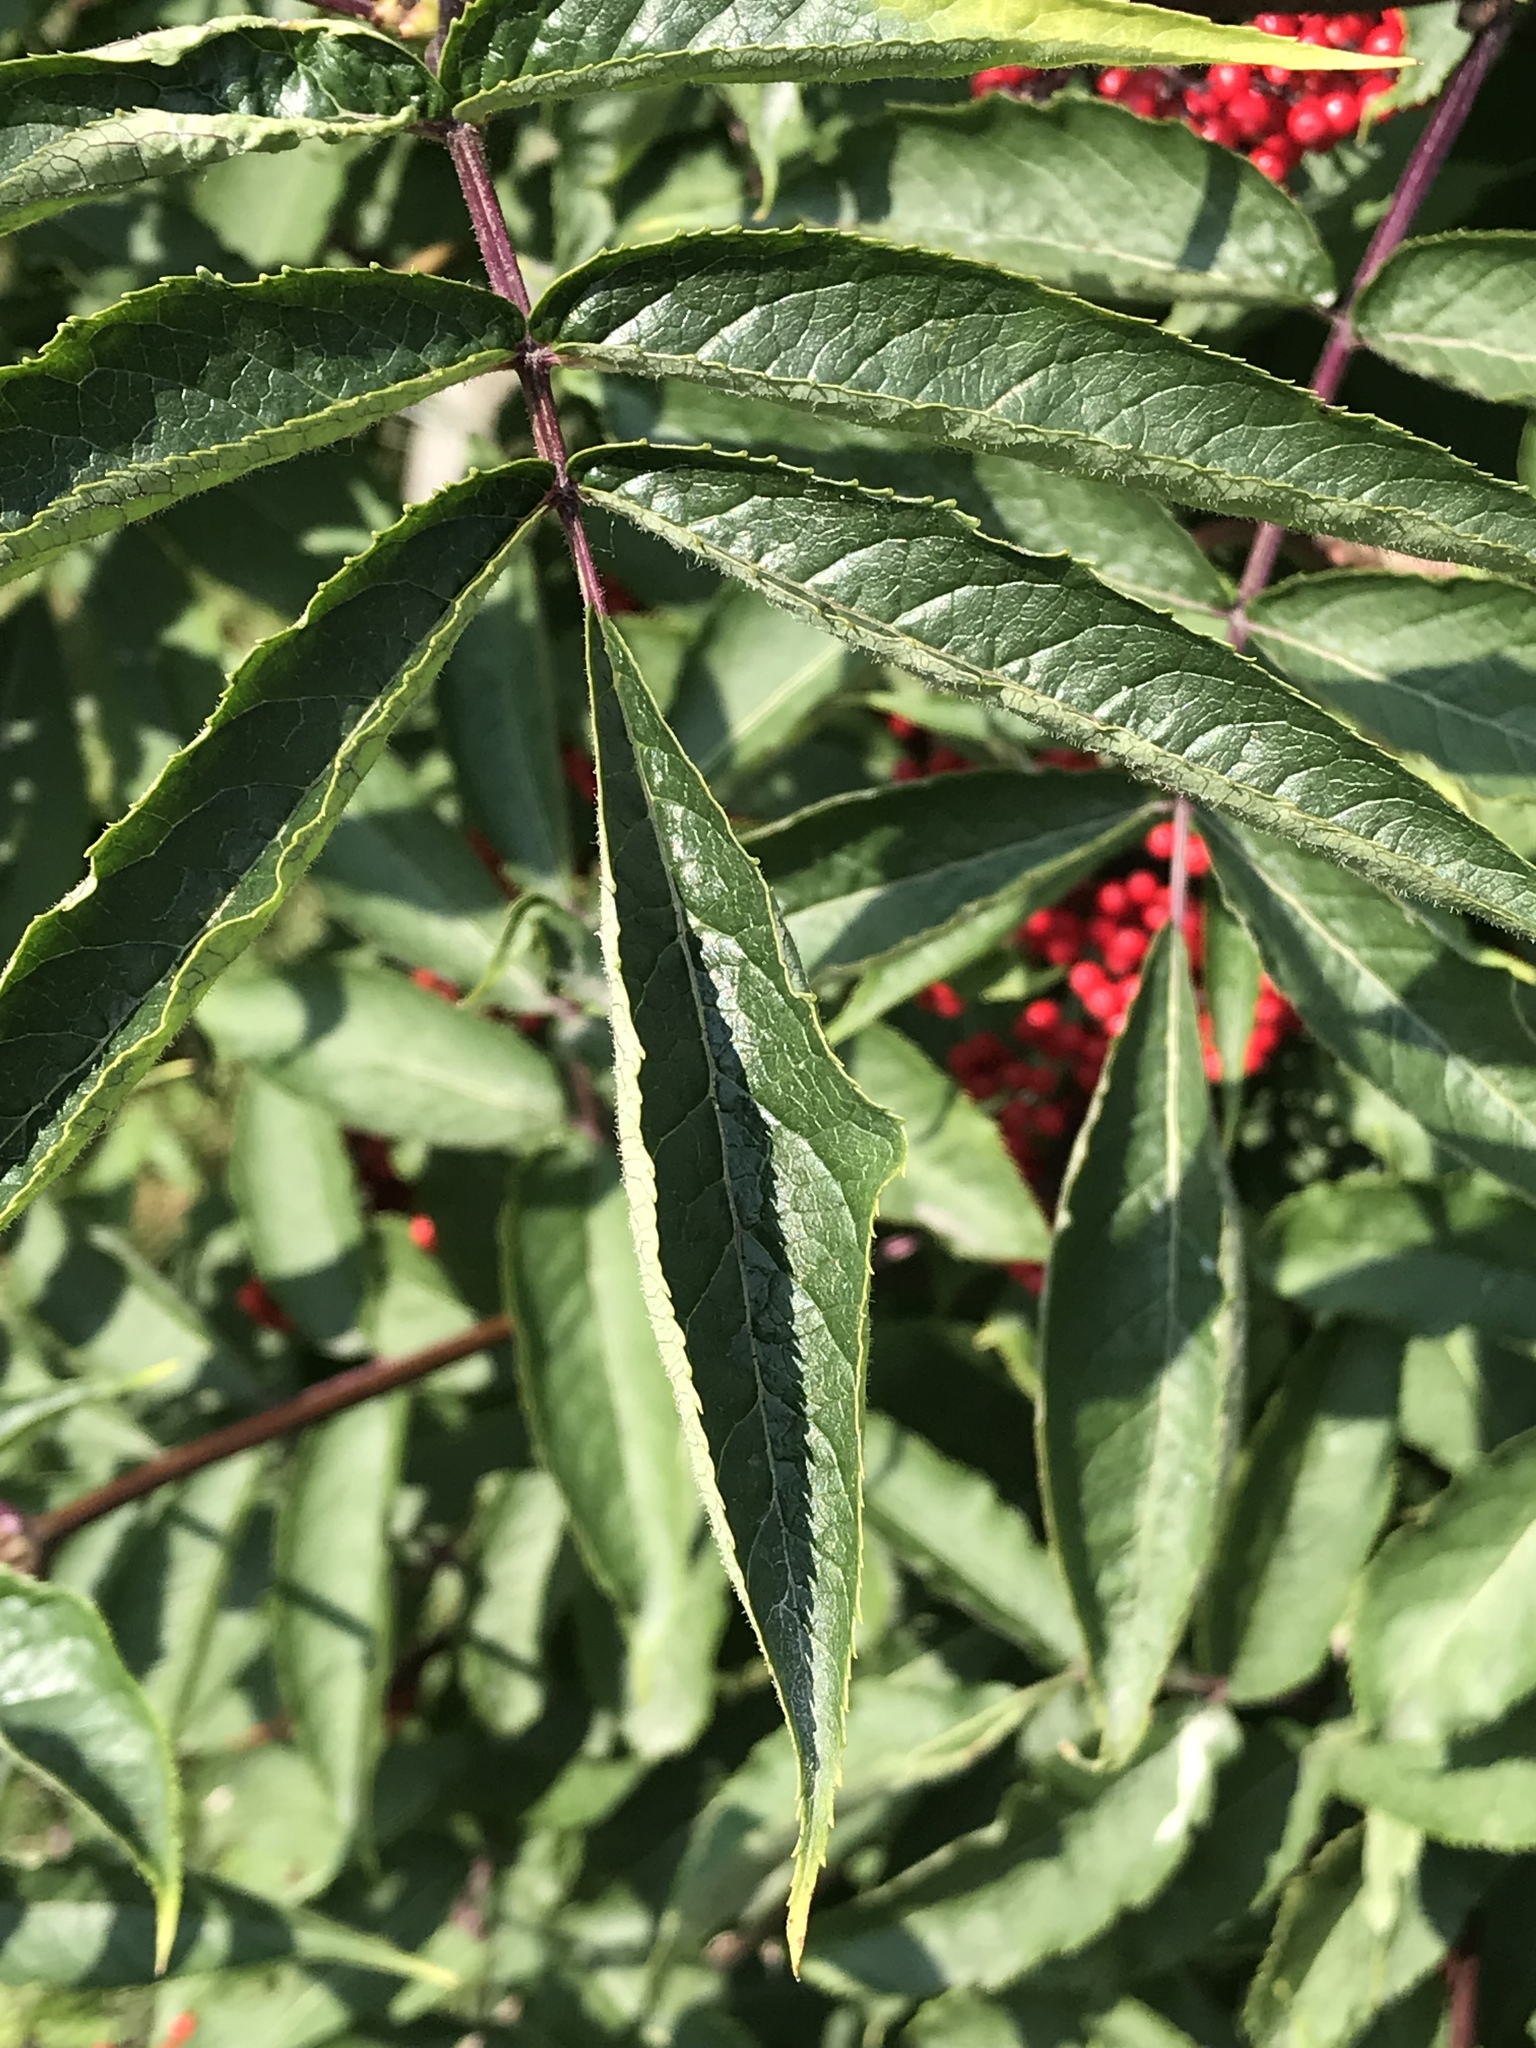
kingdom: Plantae
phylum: Tracheophyta
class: Magnoliopsida
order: Dipsacales
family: Viburnaceae
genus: Sambucus
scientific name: Sambucus racemosa
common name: Red-berried elder
